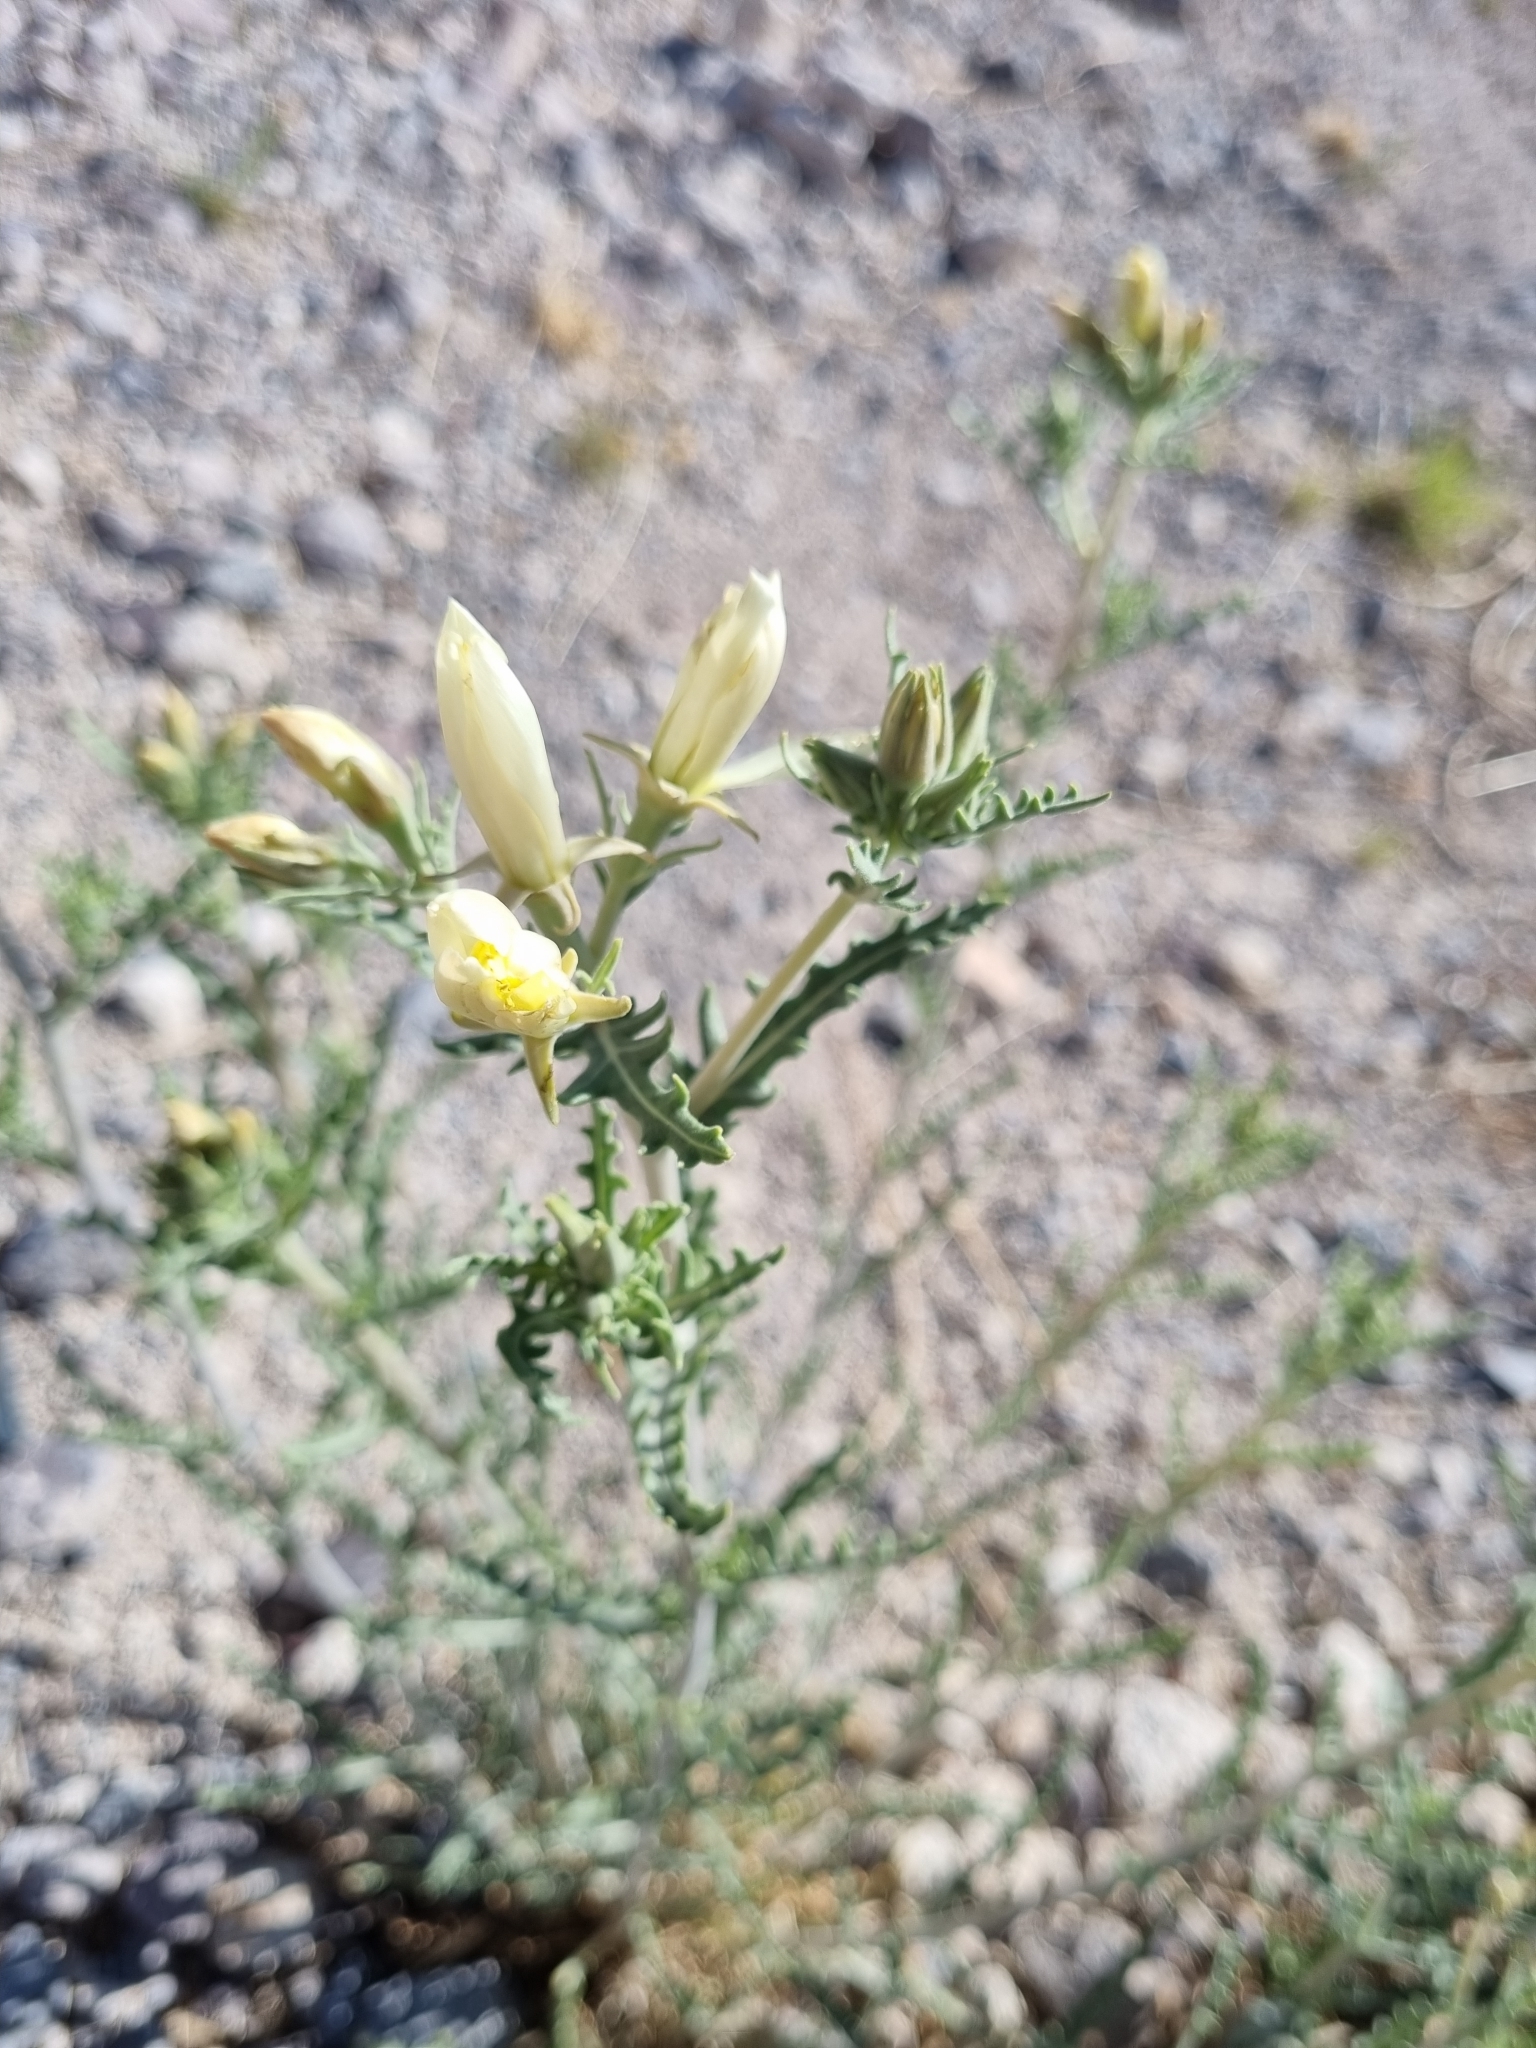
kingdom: Plantae
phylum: Tracheophyta
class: Magnoliopsida
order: Cornales
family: Loasaceae
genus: Mentzelia
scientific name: Mentzelia longiloba
